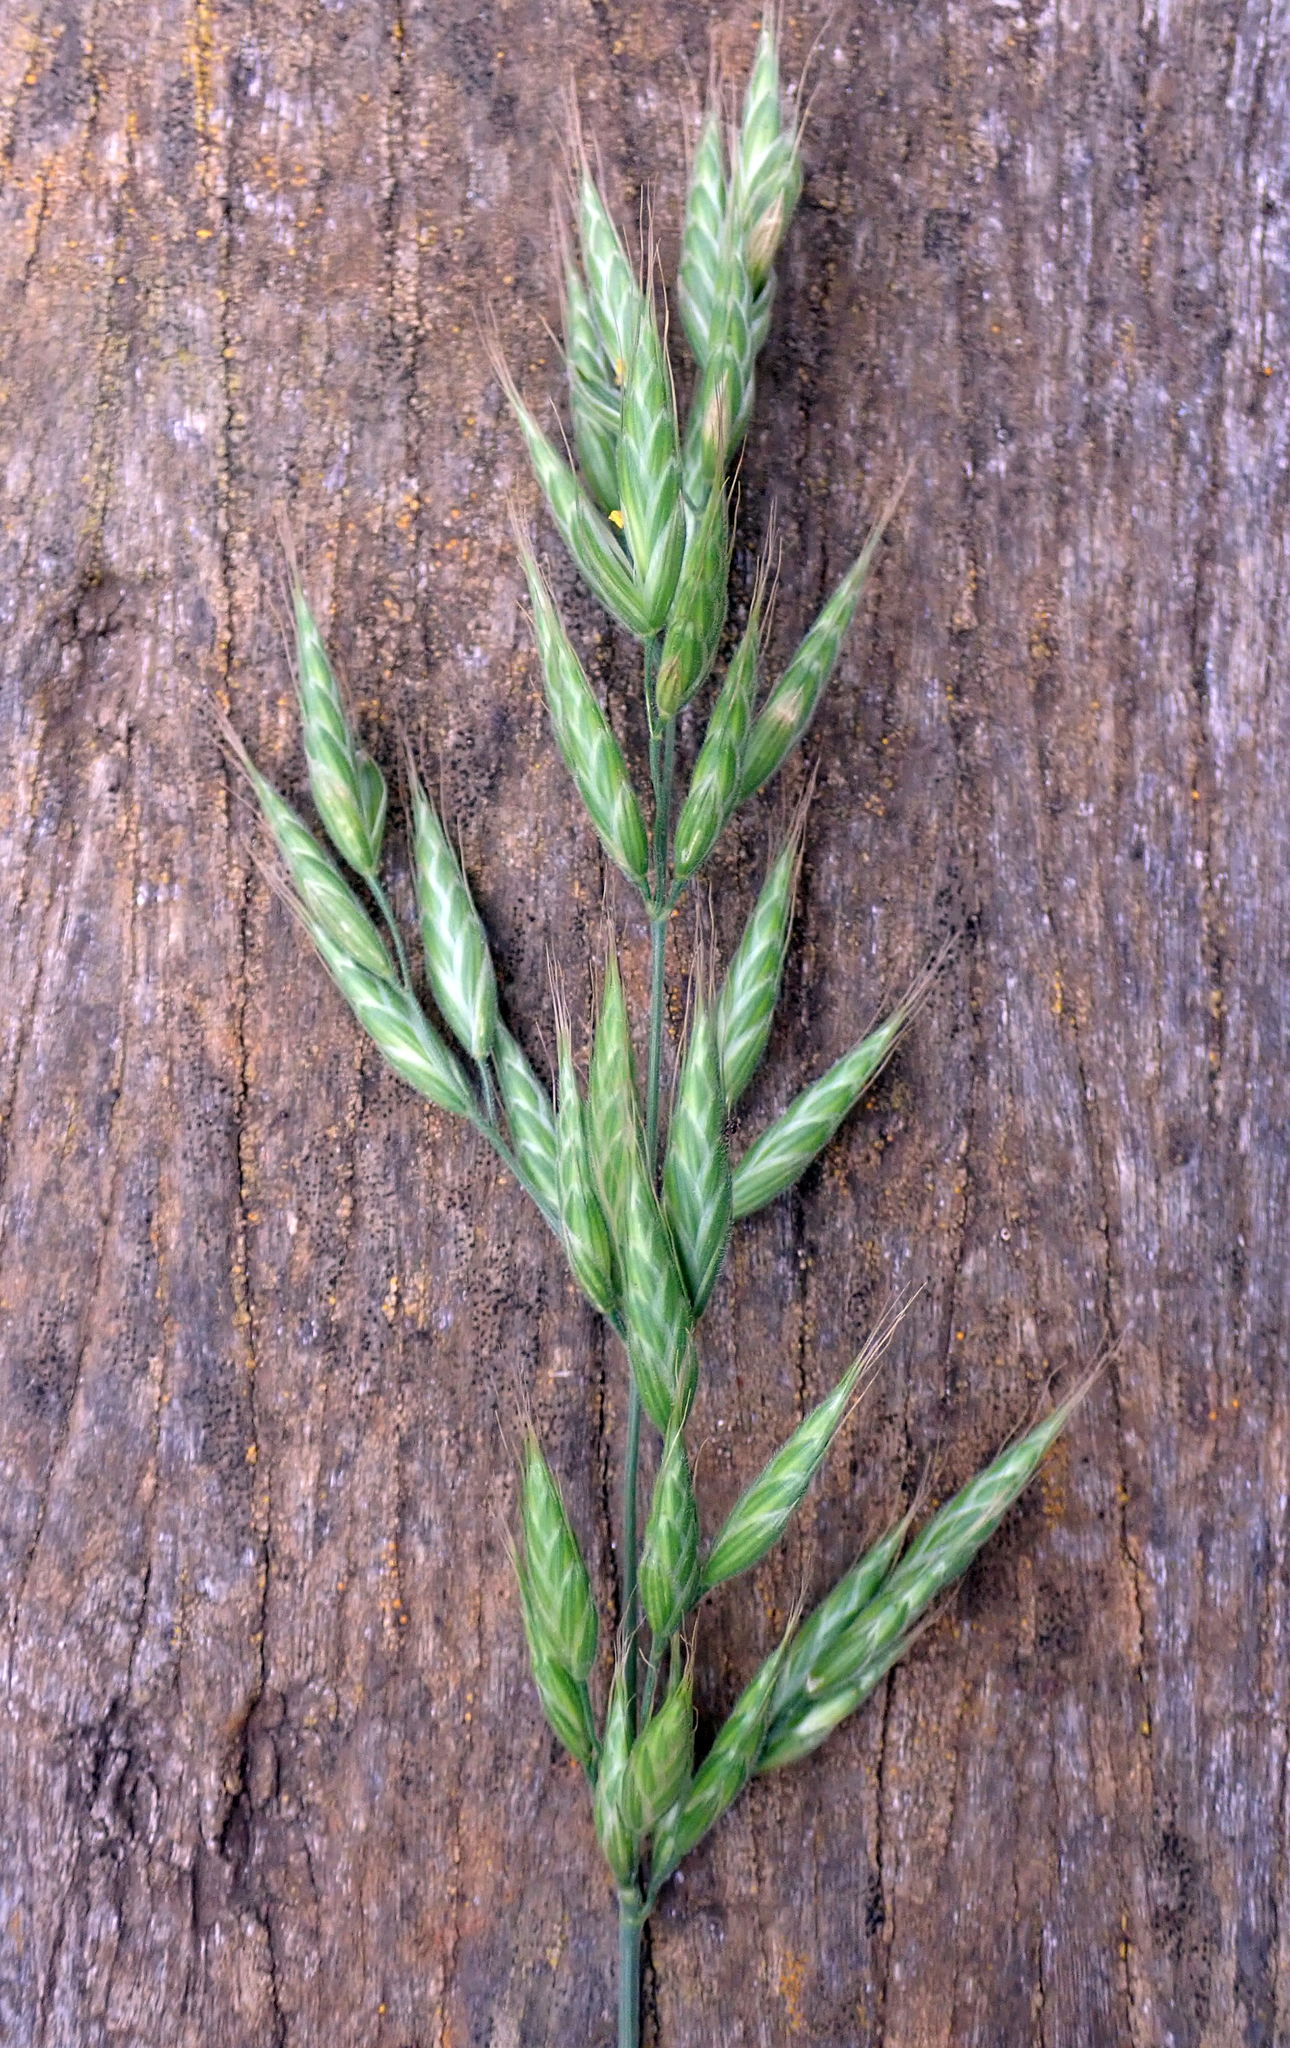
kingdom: Plantae
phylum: Tracheophyta
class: Liliopsida
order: Poales
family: Poaceae
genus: Bromus
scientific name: Bromus hordeaceus
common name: Soft brome
